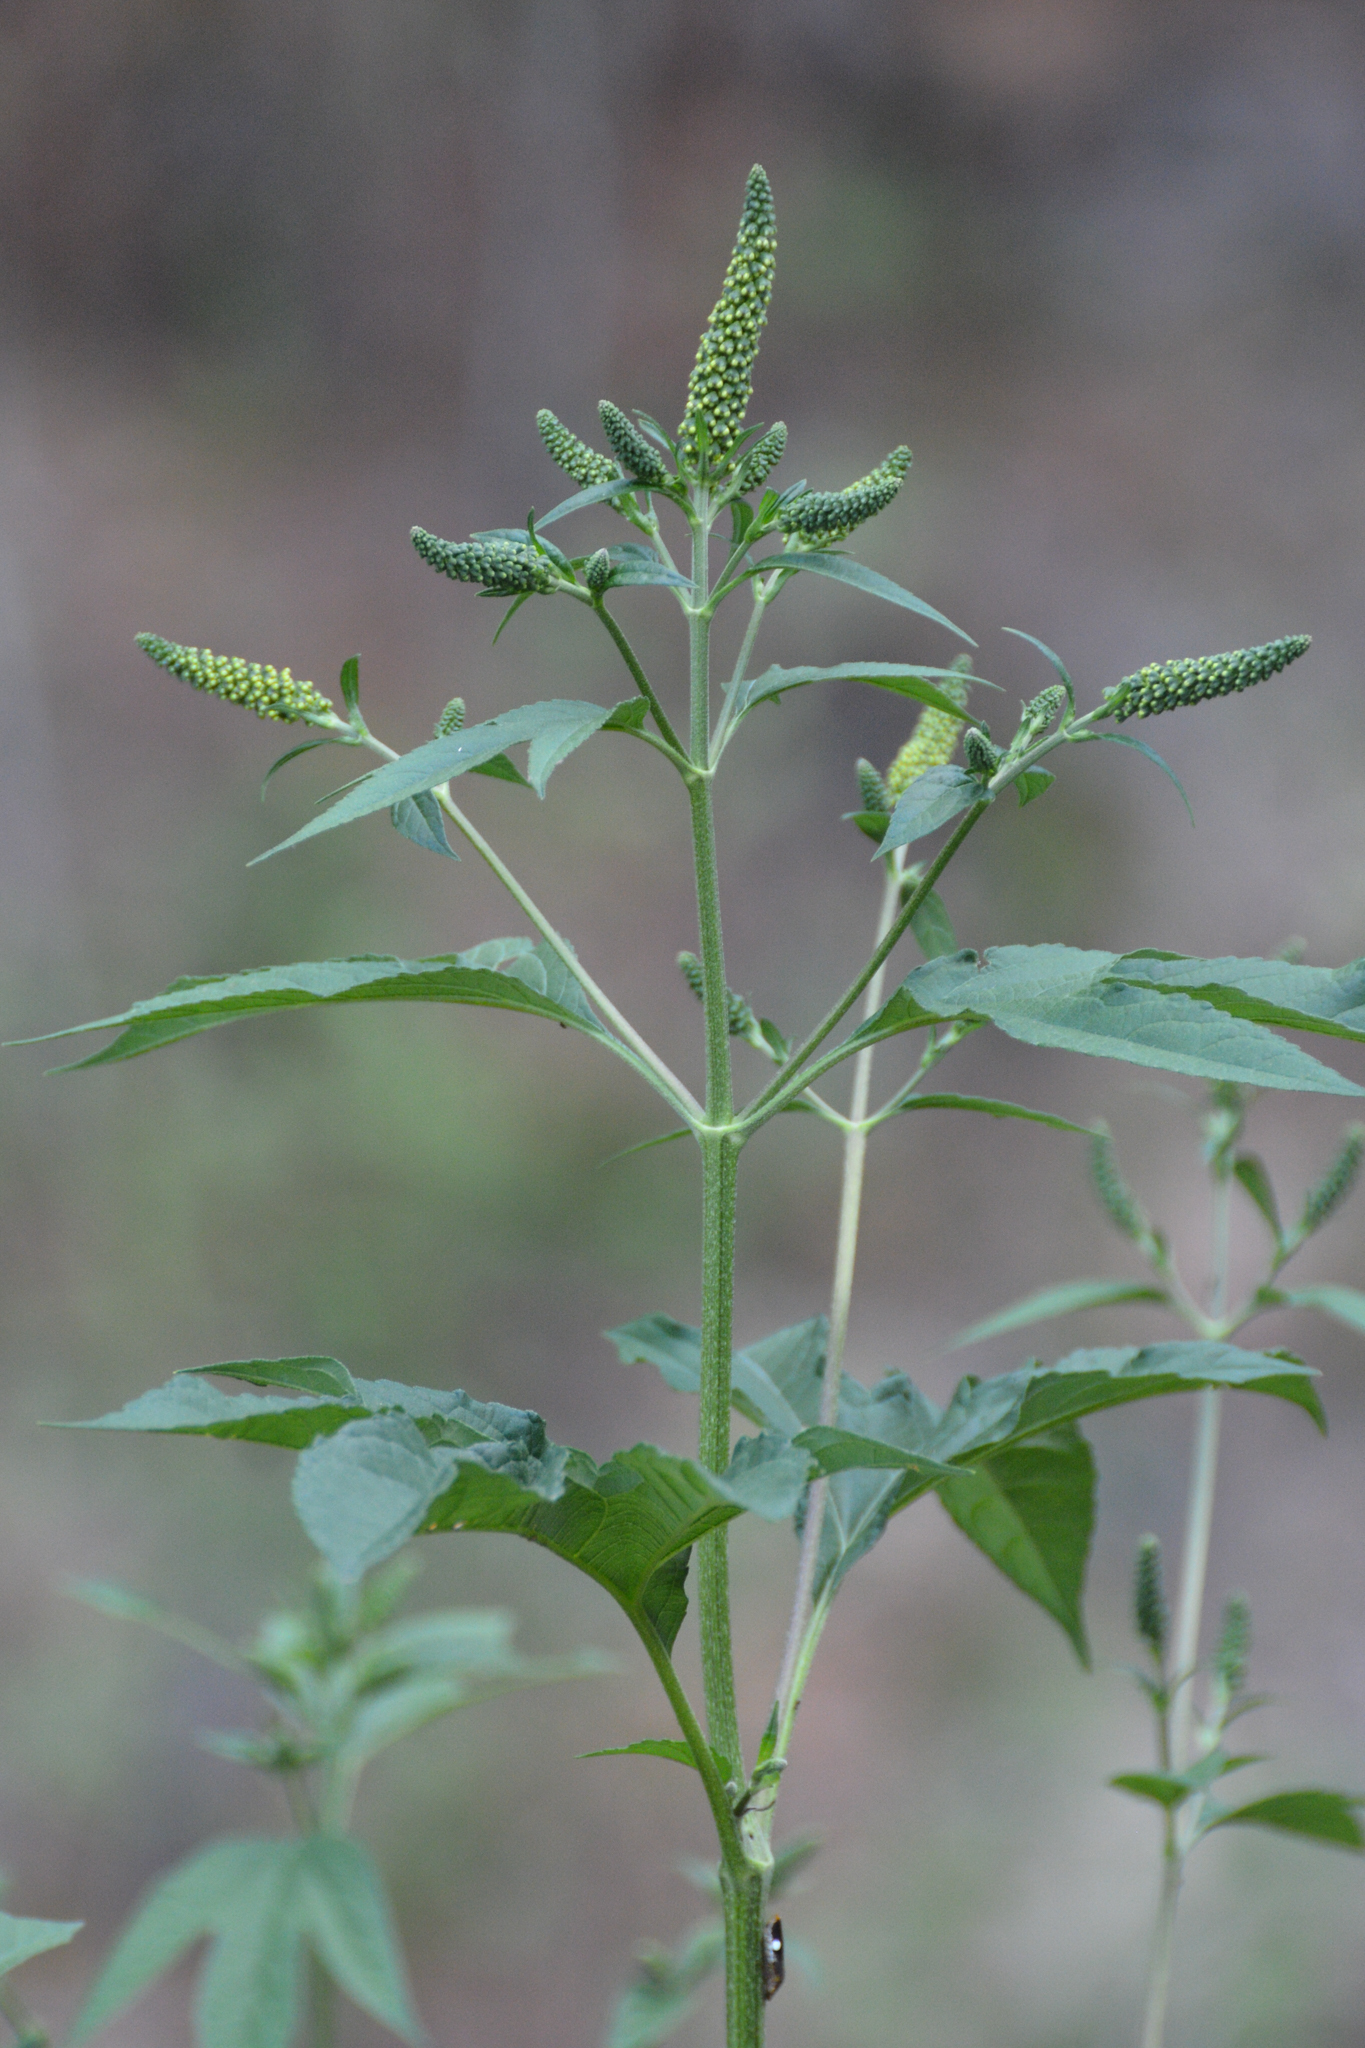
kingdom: Plantae
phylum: Tracheophyta
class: Magnoliopsida
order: Asterales
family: Asteraceae
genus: Ambrosia
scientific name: Ambrosia trifida
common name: Giant ragweed
